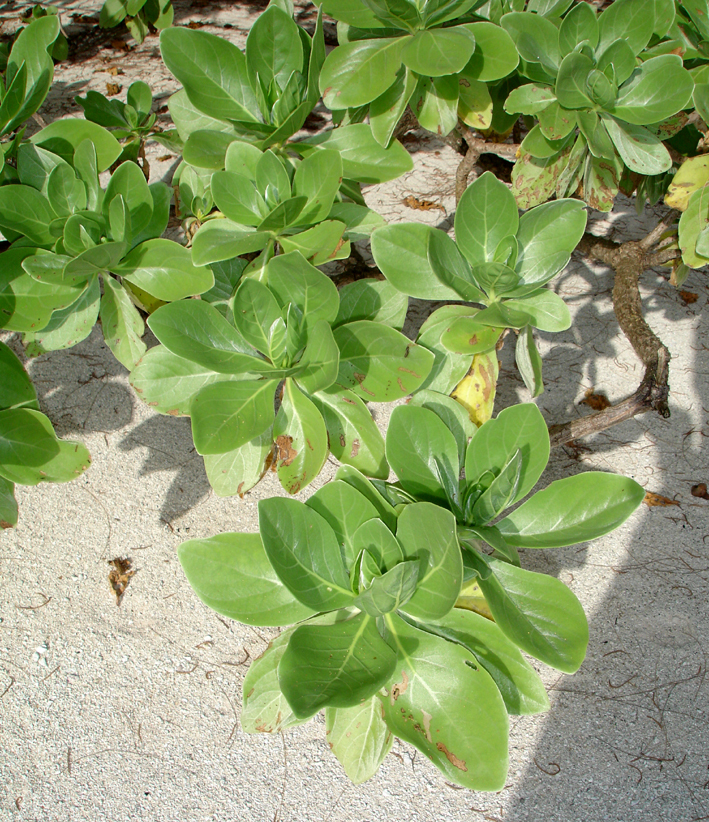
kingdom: Plantae
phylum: Tracheophyta
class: Magnoliopsida
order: Boraginales
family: Heliotropiaceae
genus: Heliotropium
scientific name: Heliotropium velutinum
